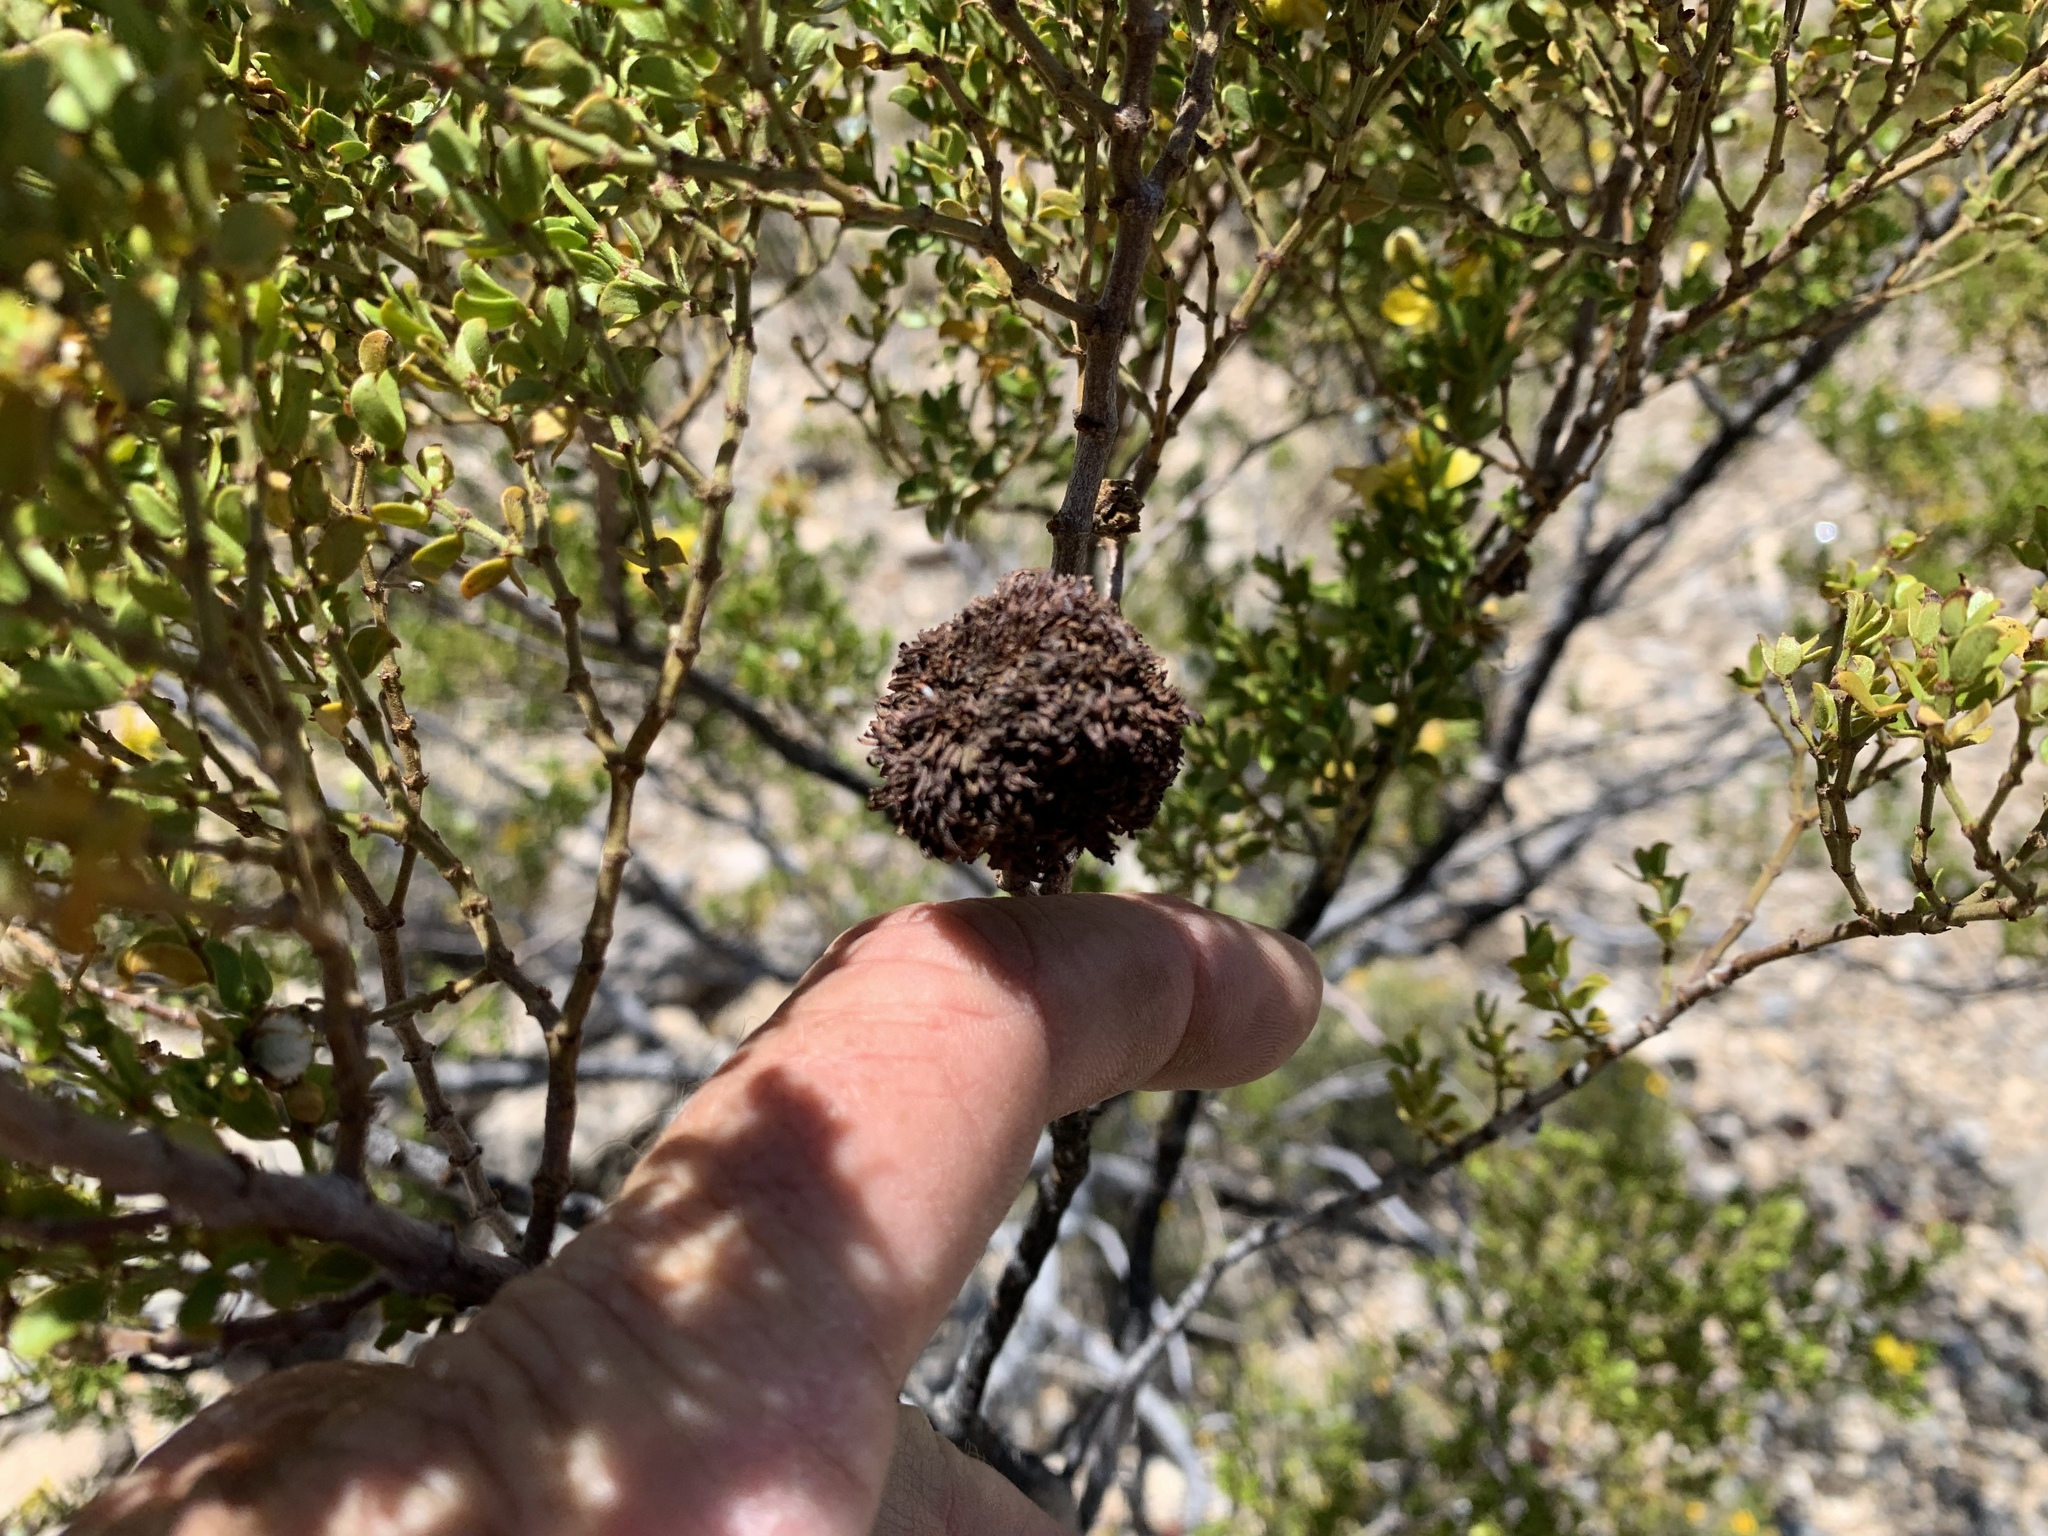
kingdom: Animalia
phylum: Arthropoda
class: Insecta
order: Diptera
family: Cecidomyiidae
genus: Asphondylia
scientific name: Asphondylia auripila
